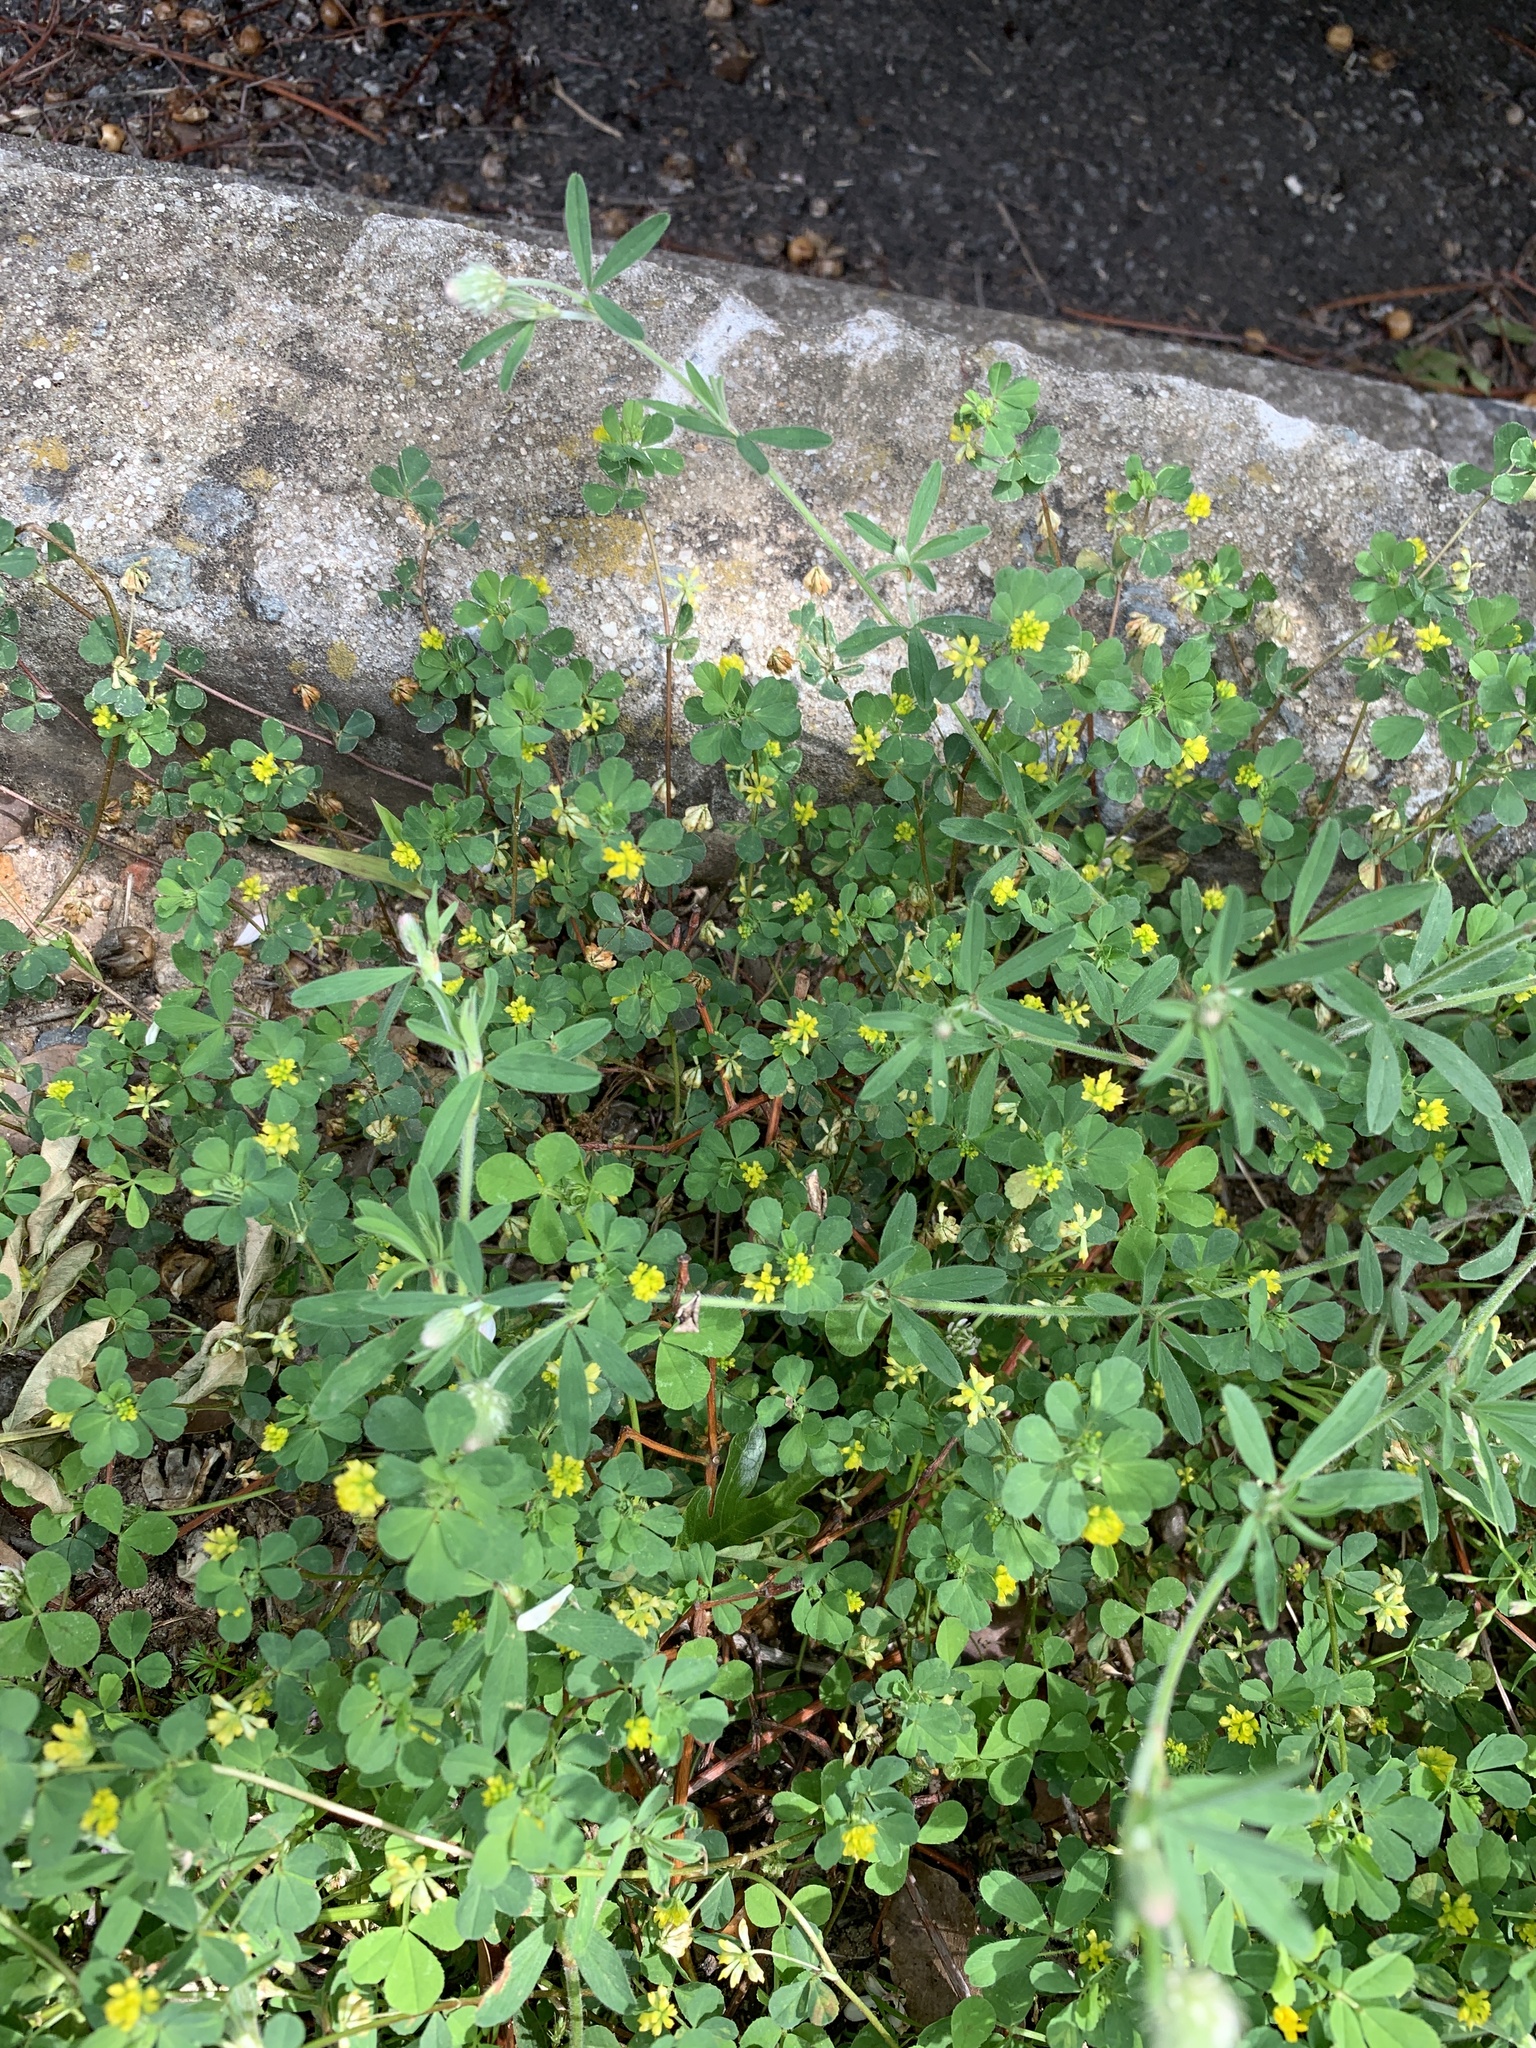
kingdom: Plantae
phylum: Tracheophyta
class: Magnoliopsida
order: Fabales
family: Fabaceae
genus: Trifolium
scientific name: Trifolium dubium
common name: Suckling clover
